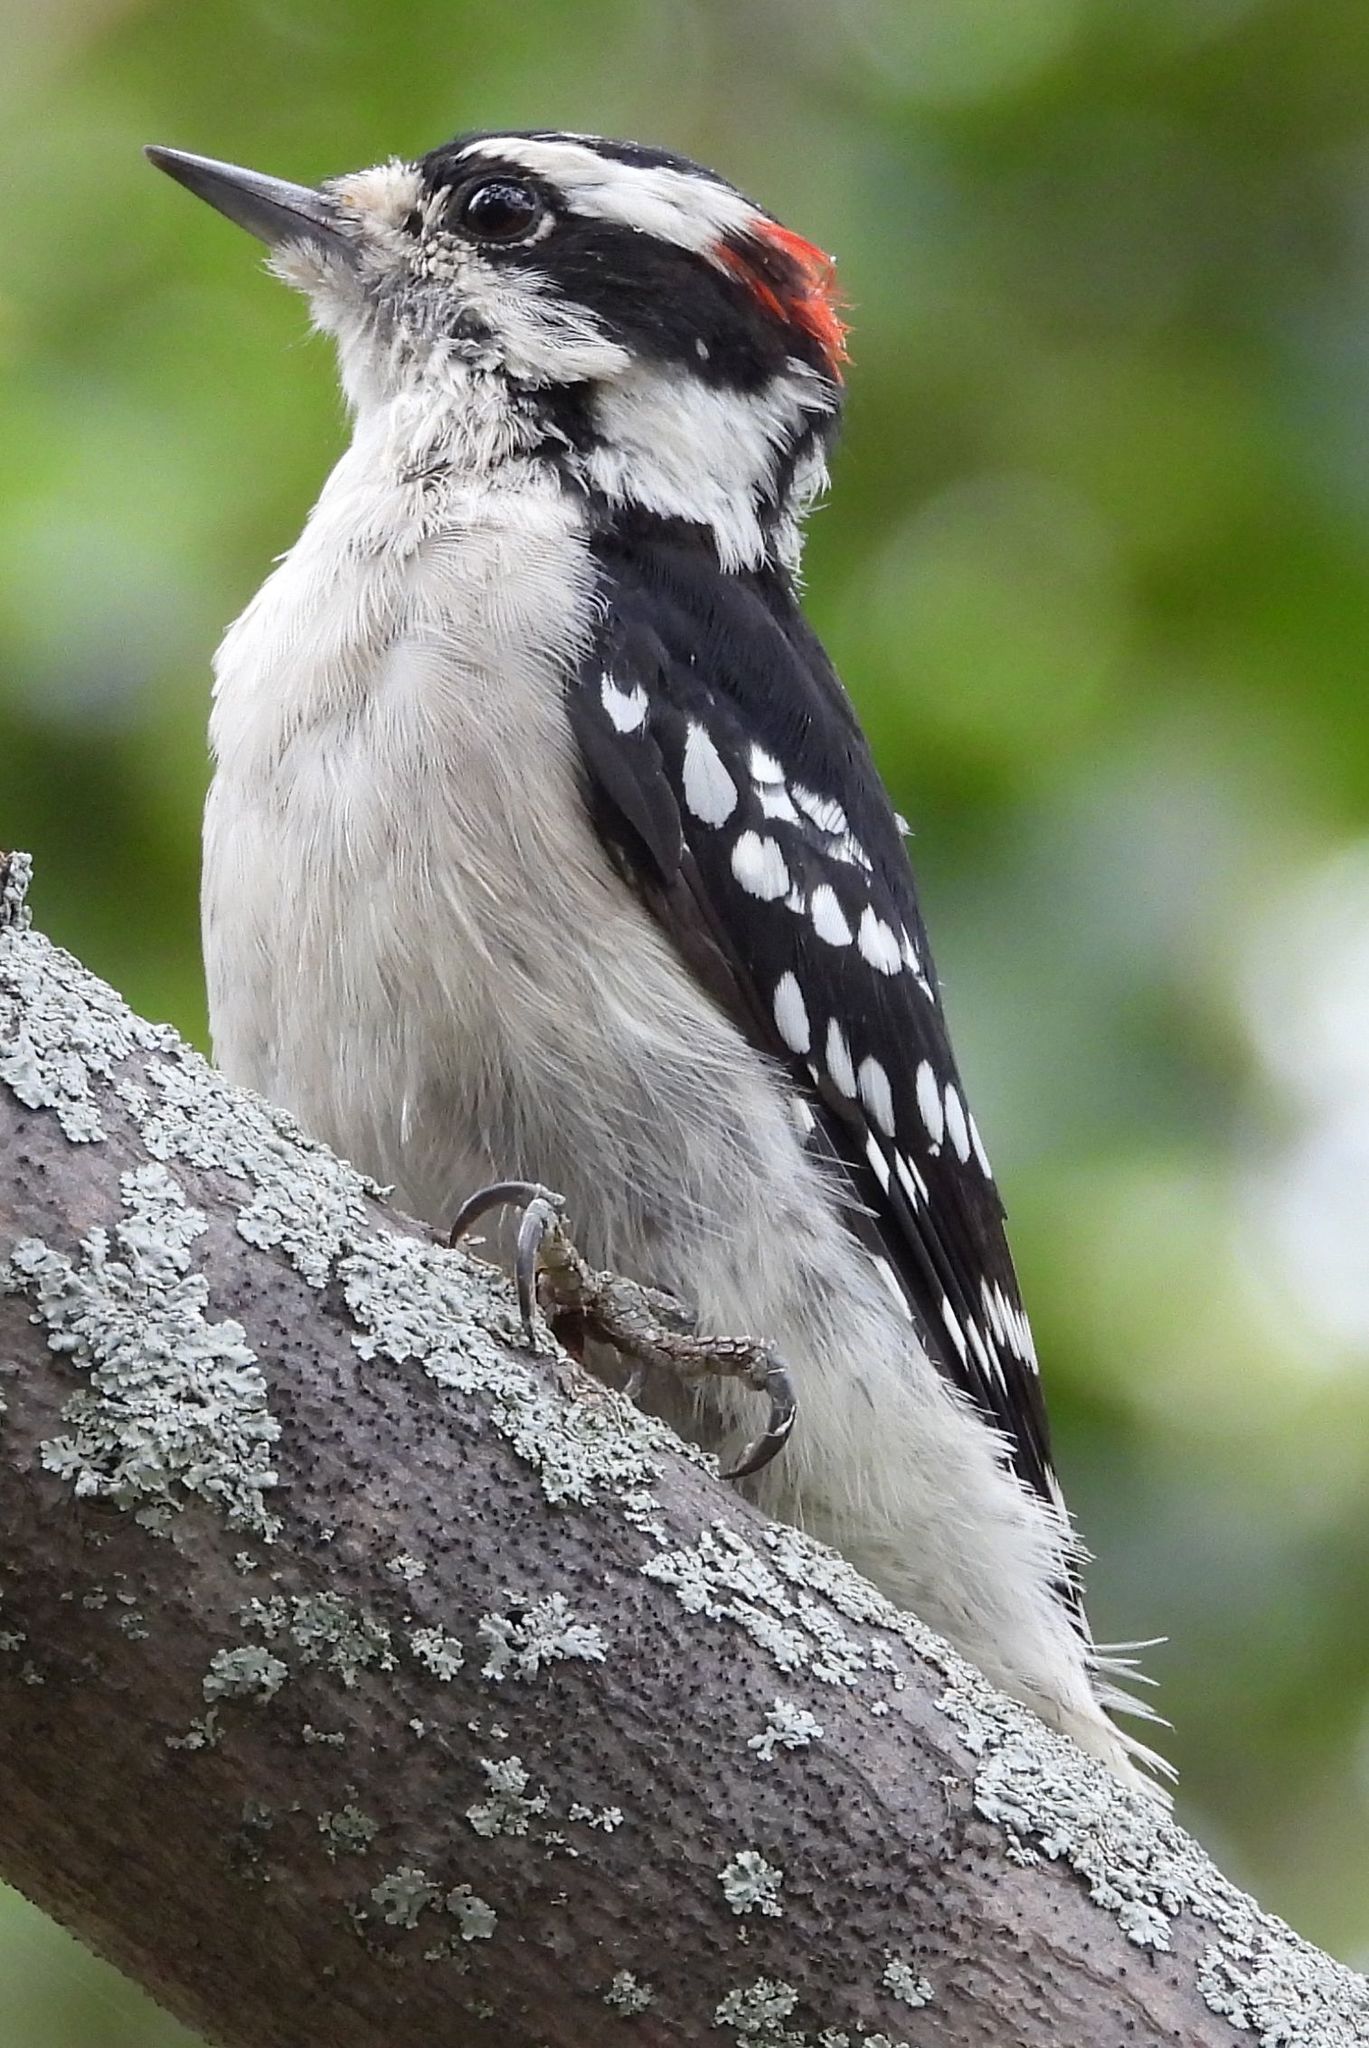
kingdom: Animalia
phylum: Chordata
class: Aves
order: Piciformes
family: Picidae
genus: Dryobates
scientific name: Dryobates pubescens
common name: Downy woodpecker
